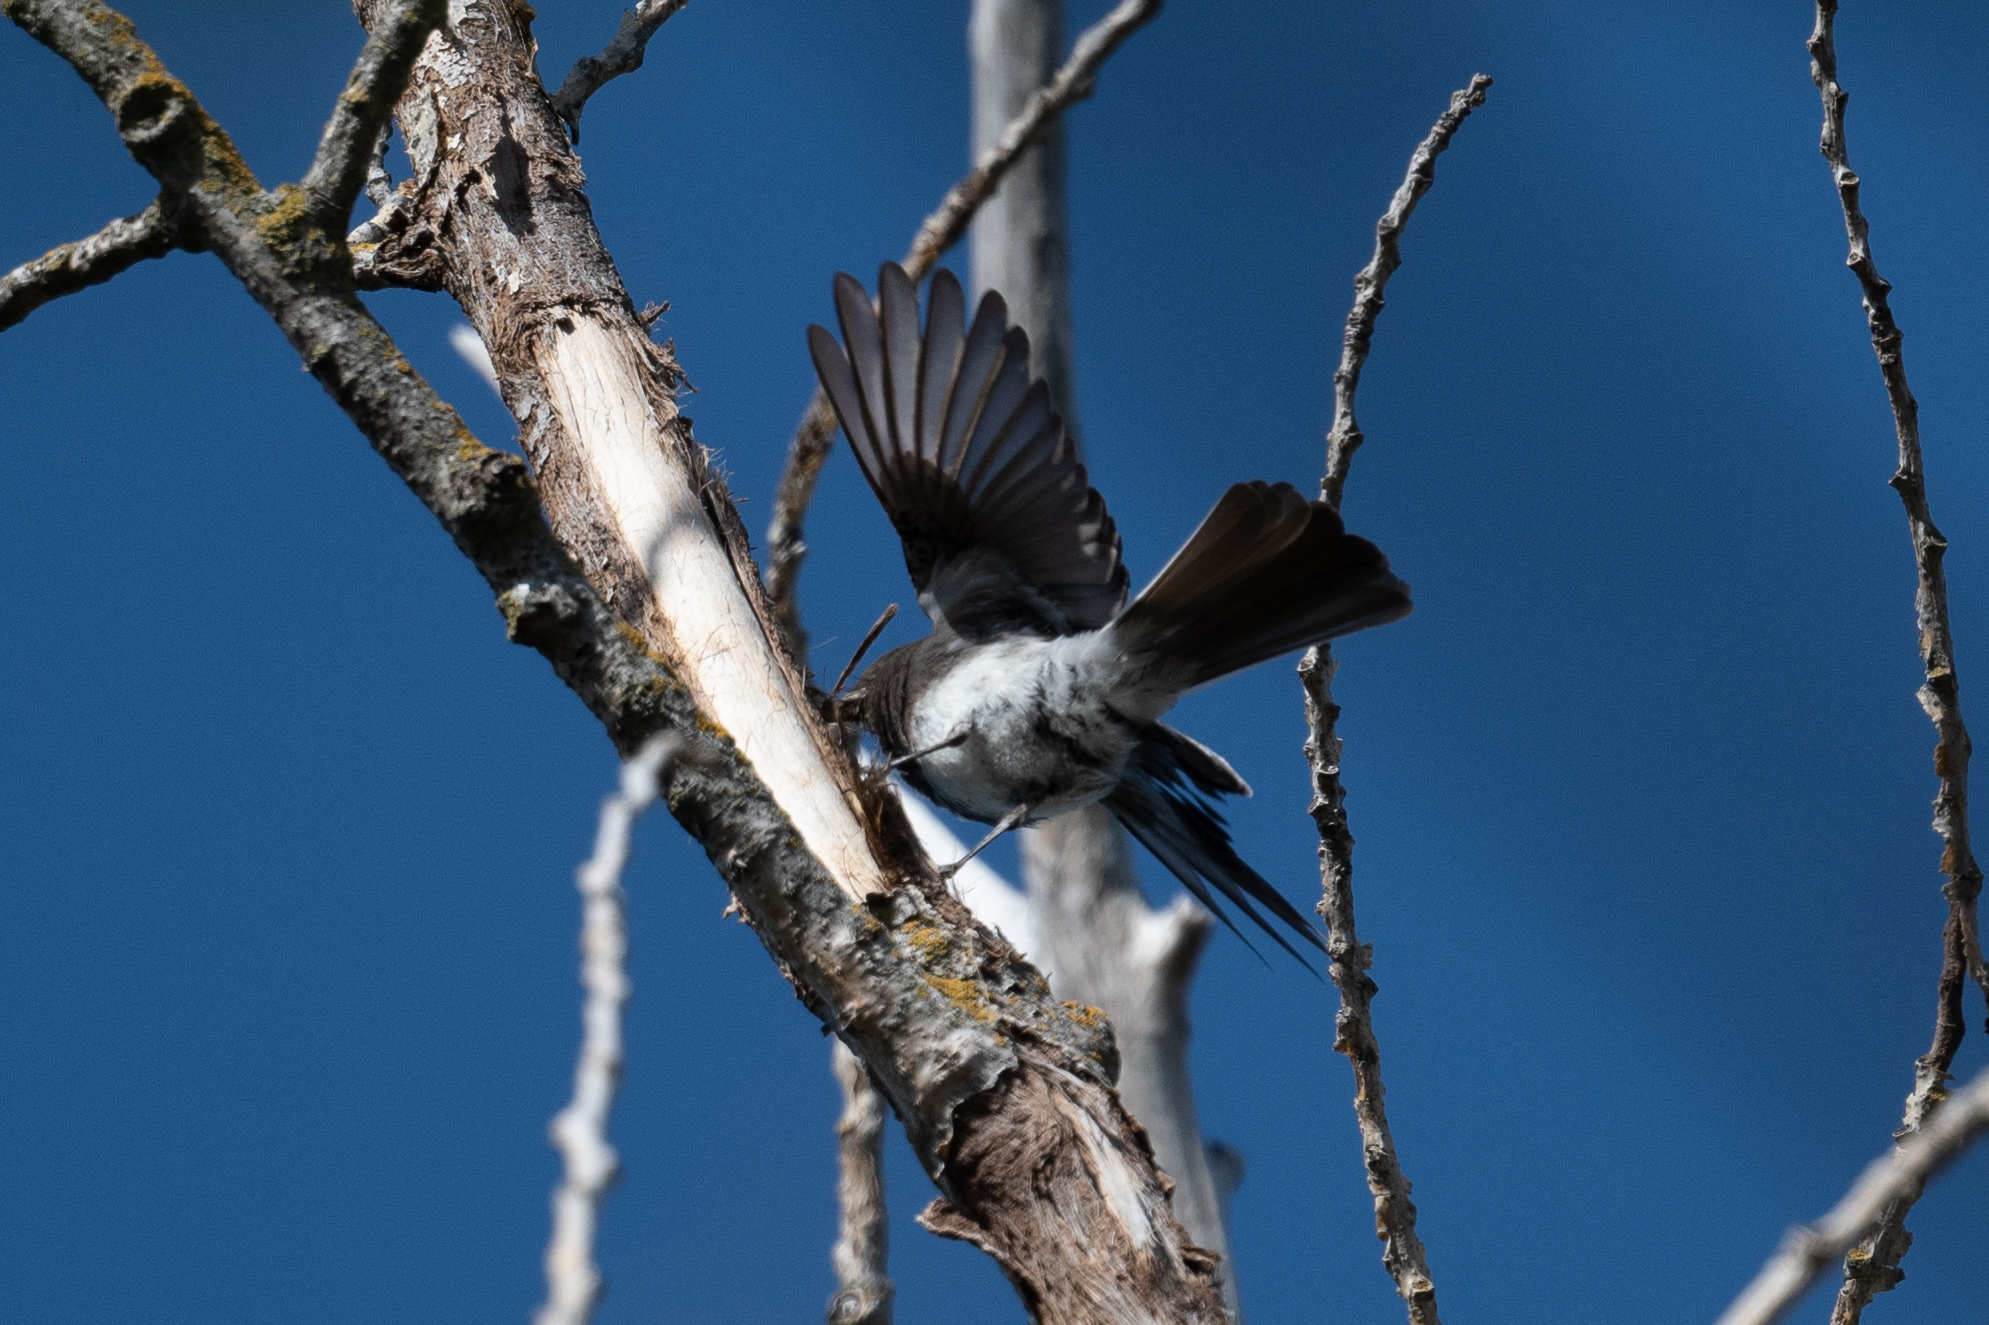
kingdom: Animalia
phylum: Chordata
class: Aves
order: Passeriformes
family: Tyrannidae
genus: Sayornis
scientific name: Sayornis nigricans
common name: Black phoebe
